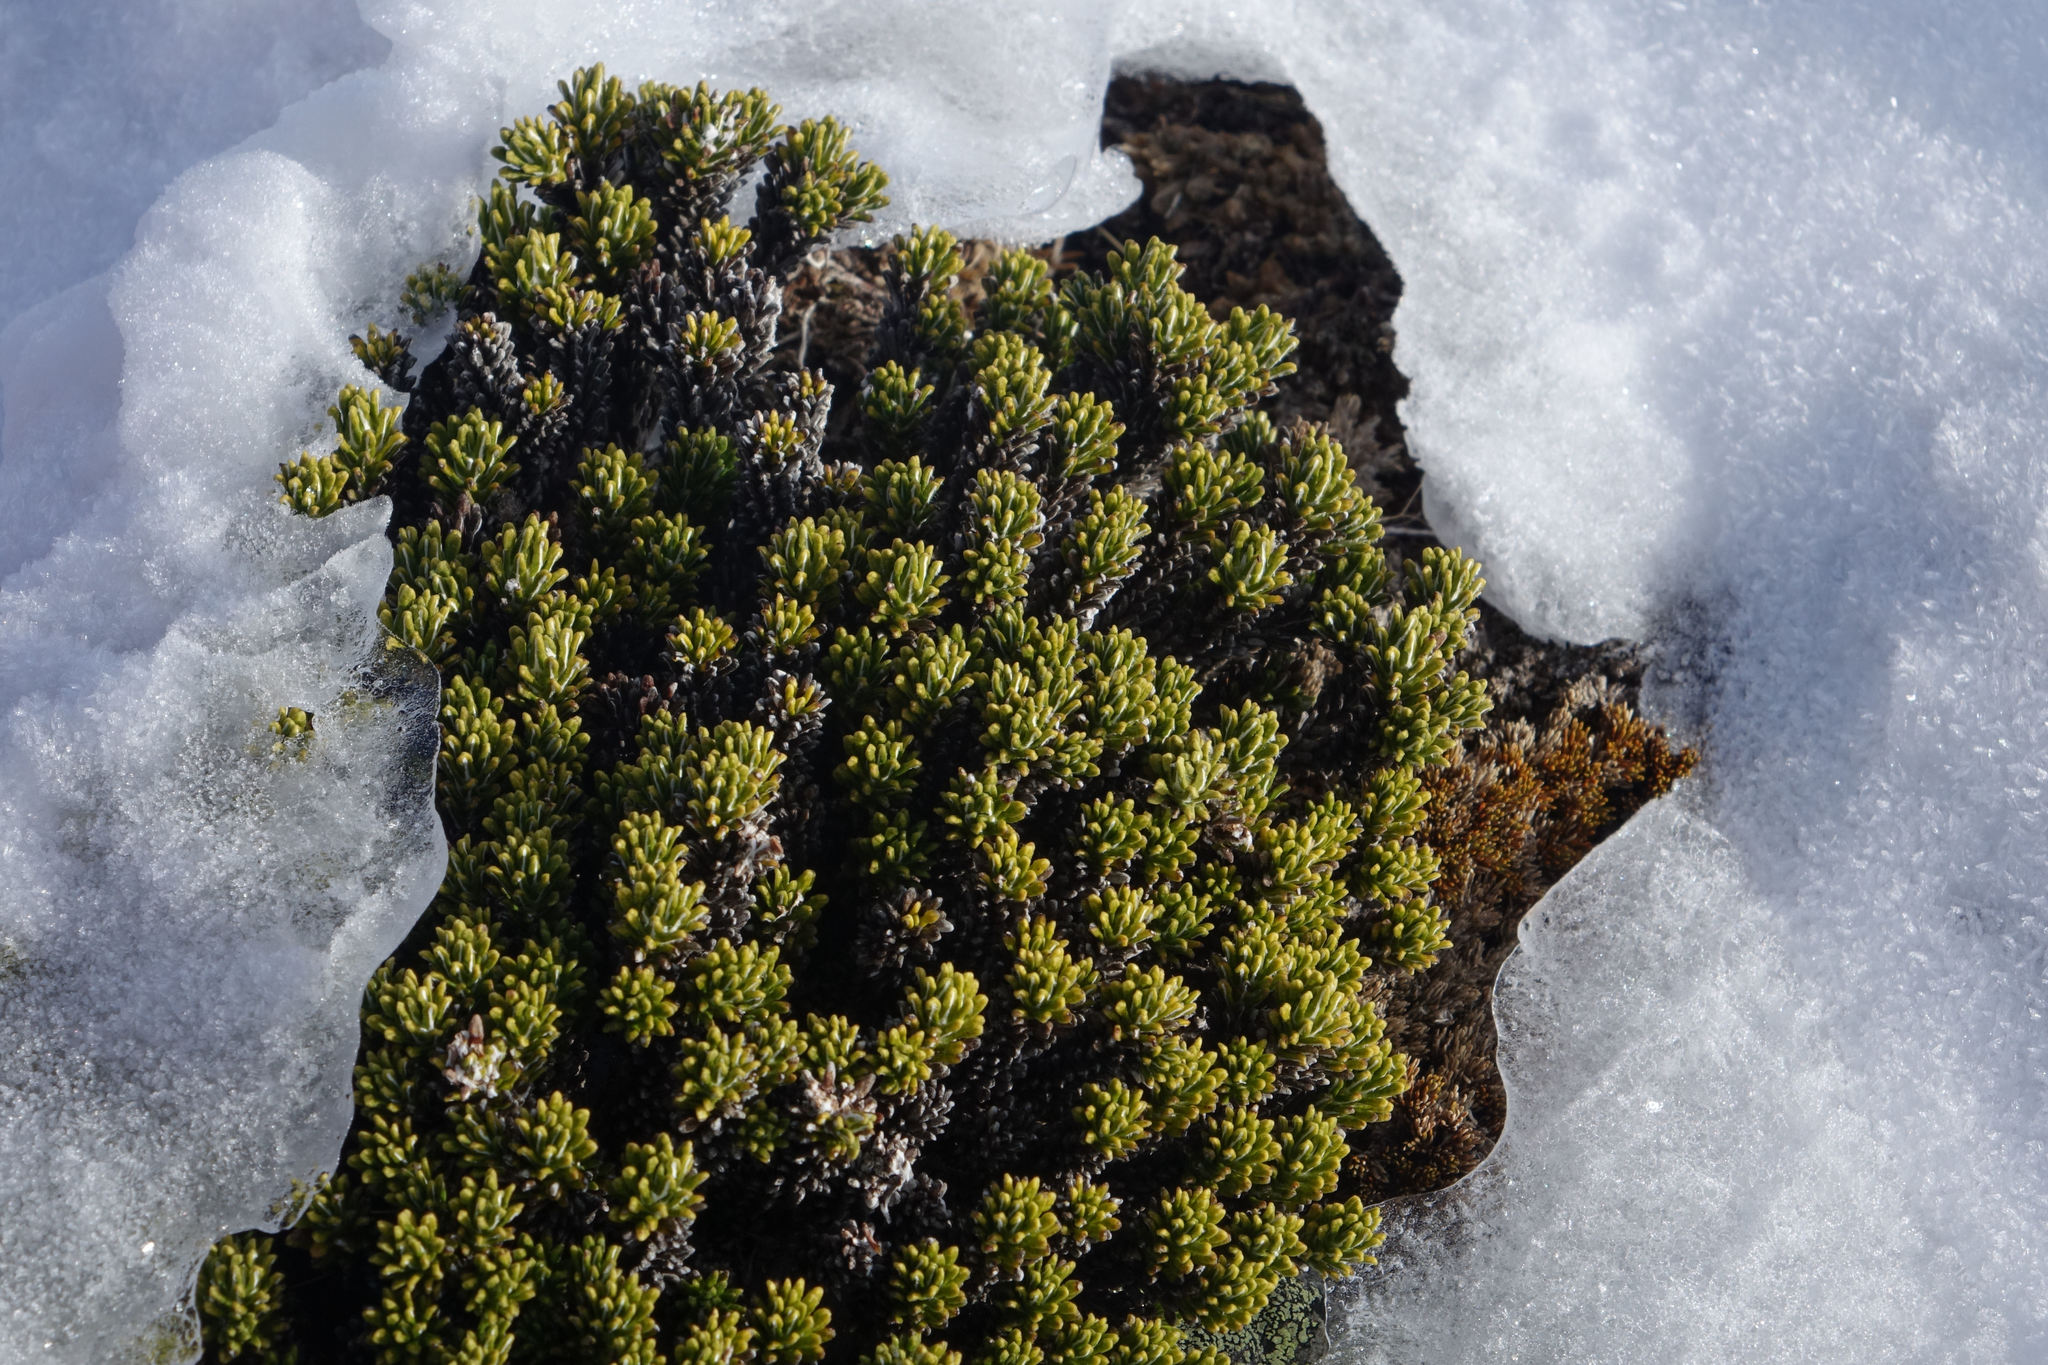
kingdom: Plantae
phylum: Tracheophyta
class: Magnoliopsida
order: Asterales
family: Asteraceae
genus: Celmisia
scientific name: Celmisia ramulosa
